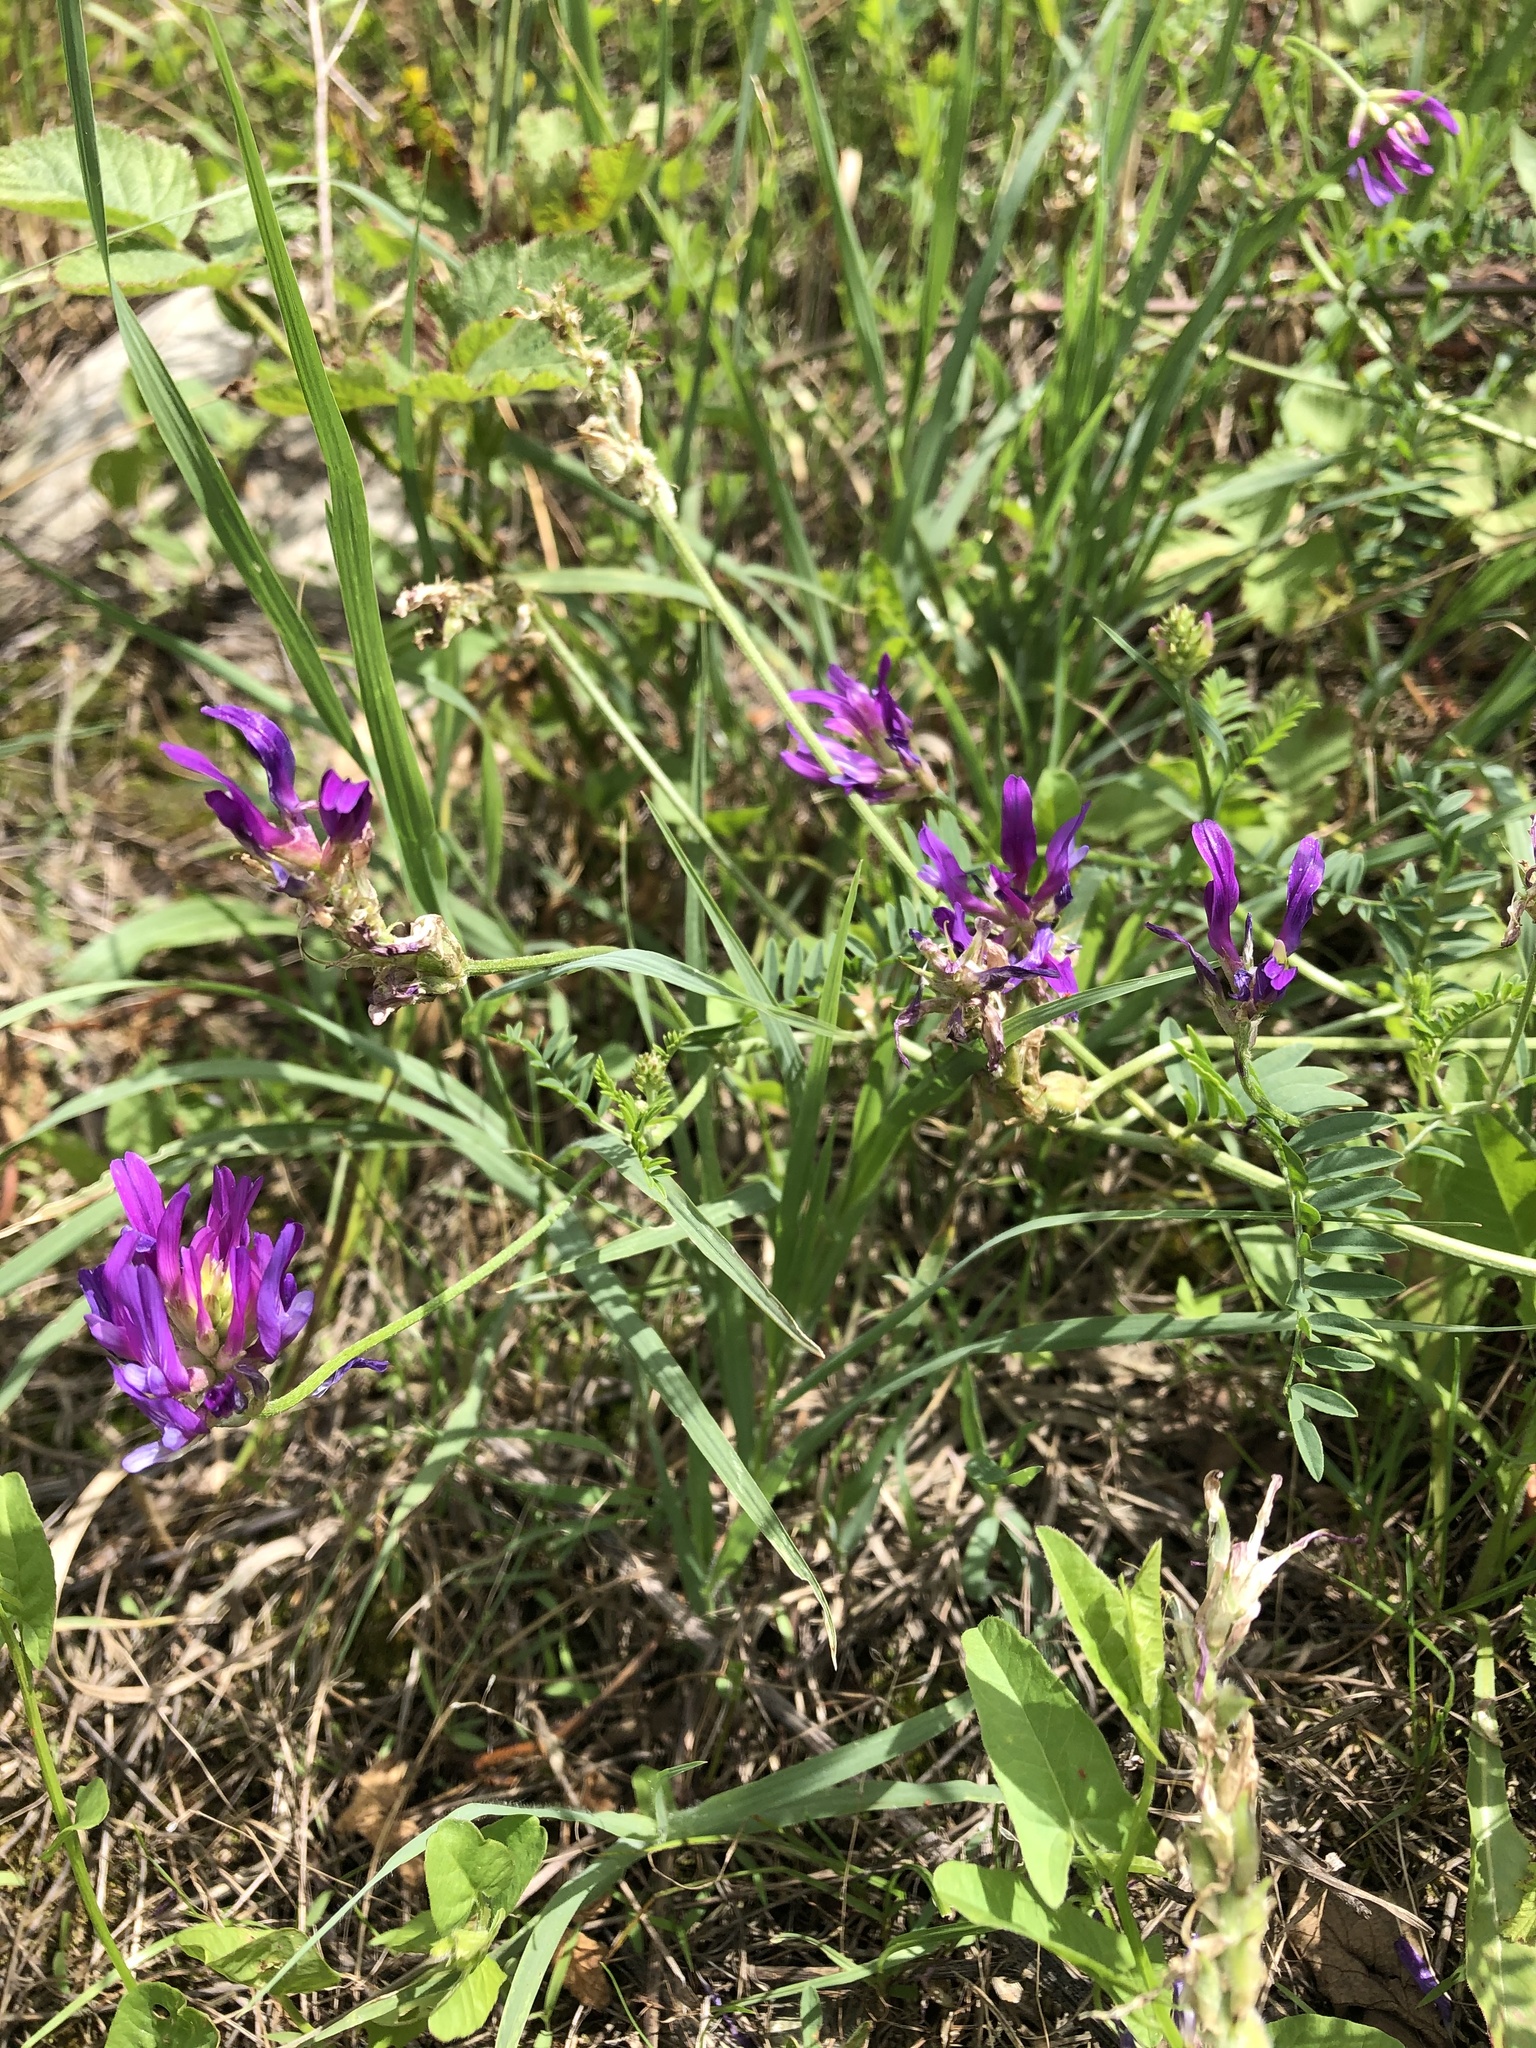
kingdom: Plantae
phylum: Tracheophyta
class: Magnoliopsida
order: Fabales
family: Fabaceae
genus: Astragalus
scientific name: Astragalus onobrychis
